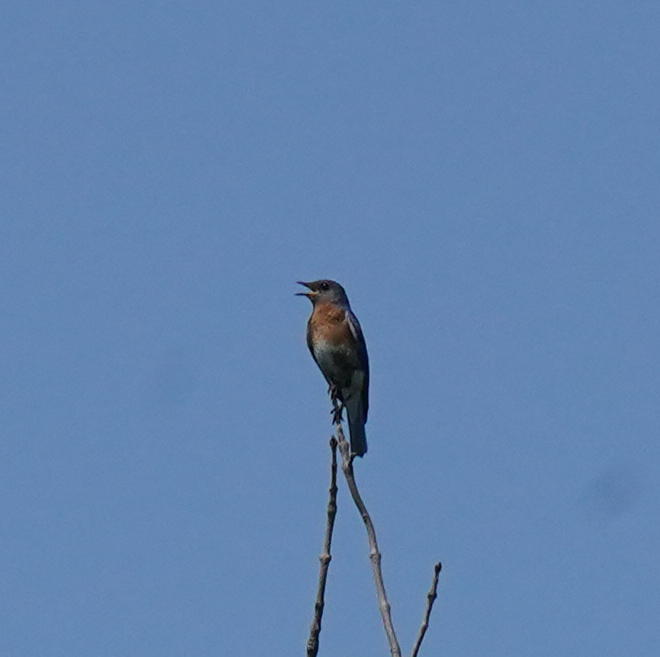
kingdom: Animalia
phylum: Chordata
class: Aves
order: Passeriformes
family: Turdidae
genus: Sialia
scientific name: Sialia sialis
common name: Eastern bluebird
